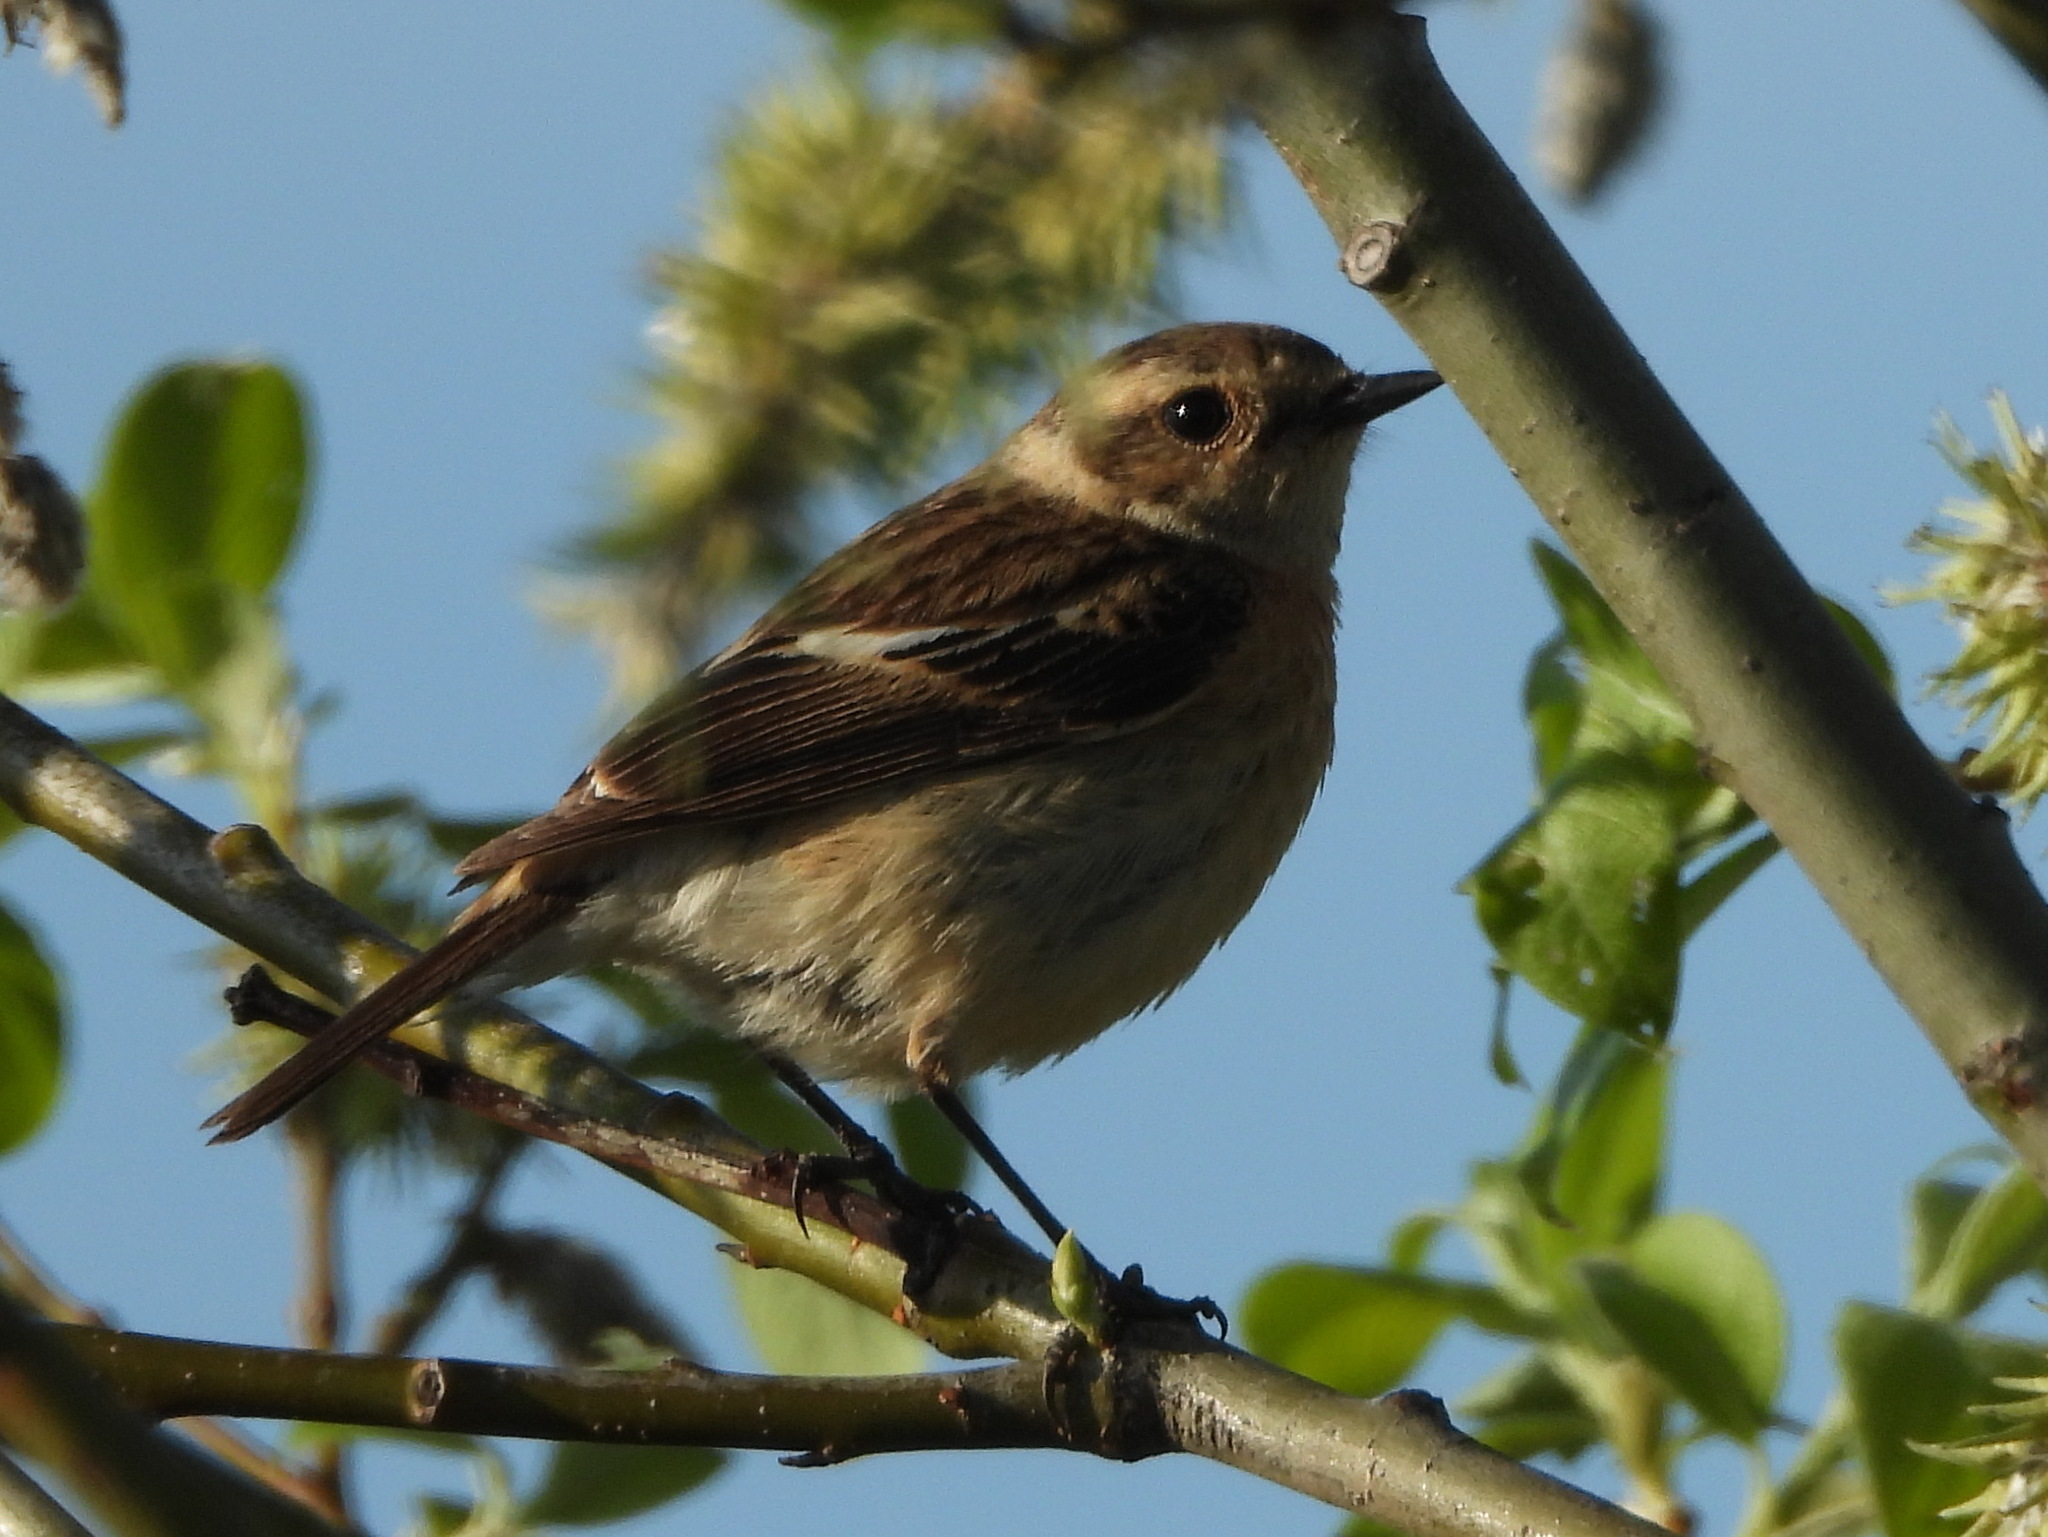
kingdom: Animalia
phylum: Chordata
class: Aves
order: Passeriformes
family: Muscicapidae
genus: Saxicola
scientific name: Saxicola maurus
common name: Siberian stonechat
